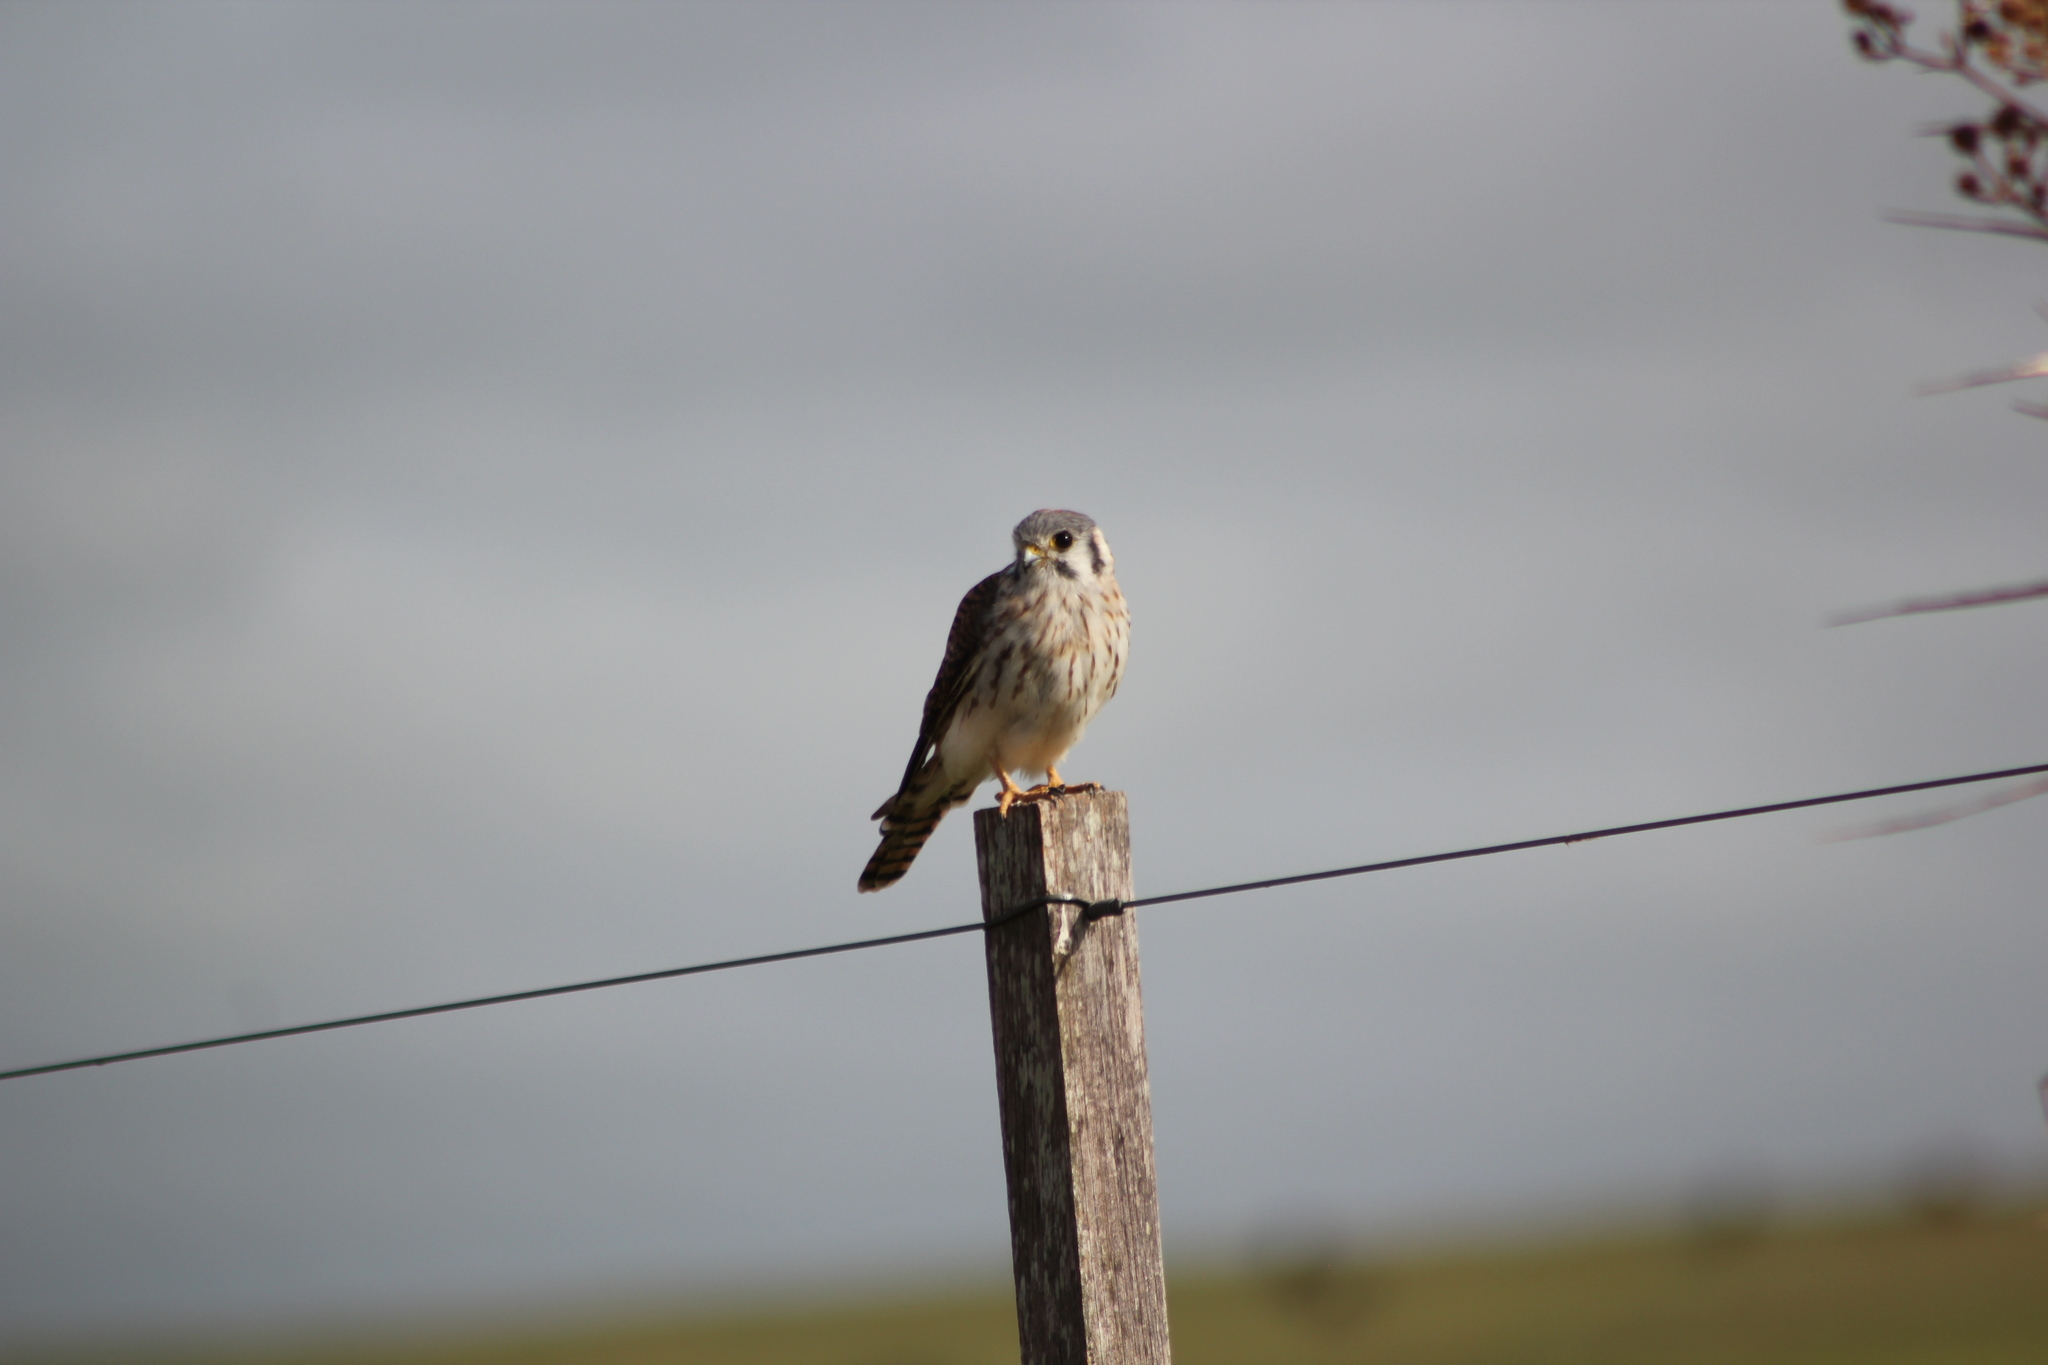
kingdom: Animalia
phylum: Chordata
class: Aves
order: Falconiformes
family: Falconidae
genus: Falco
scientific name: Falco sparverius
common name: American kestrel
